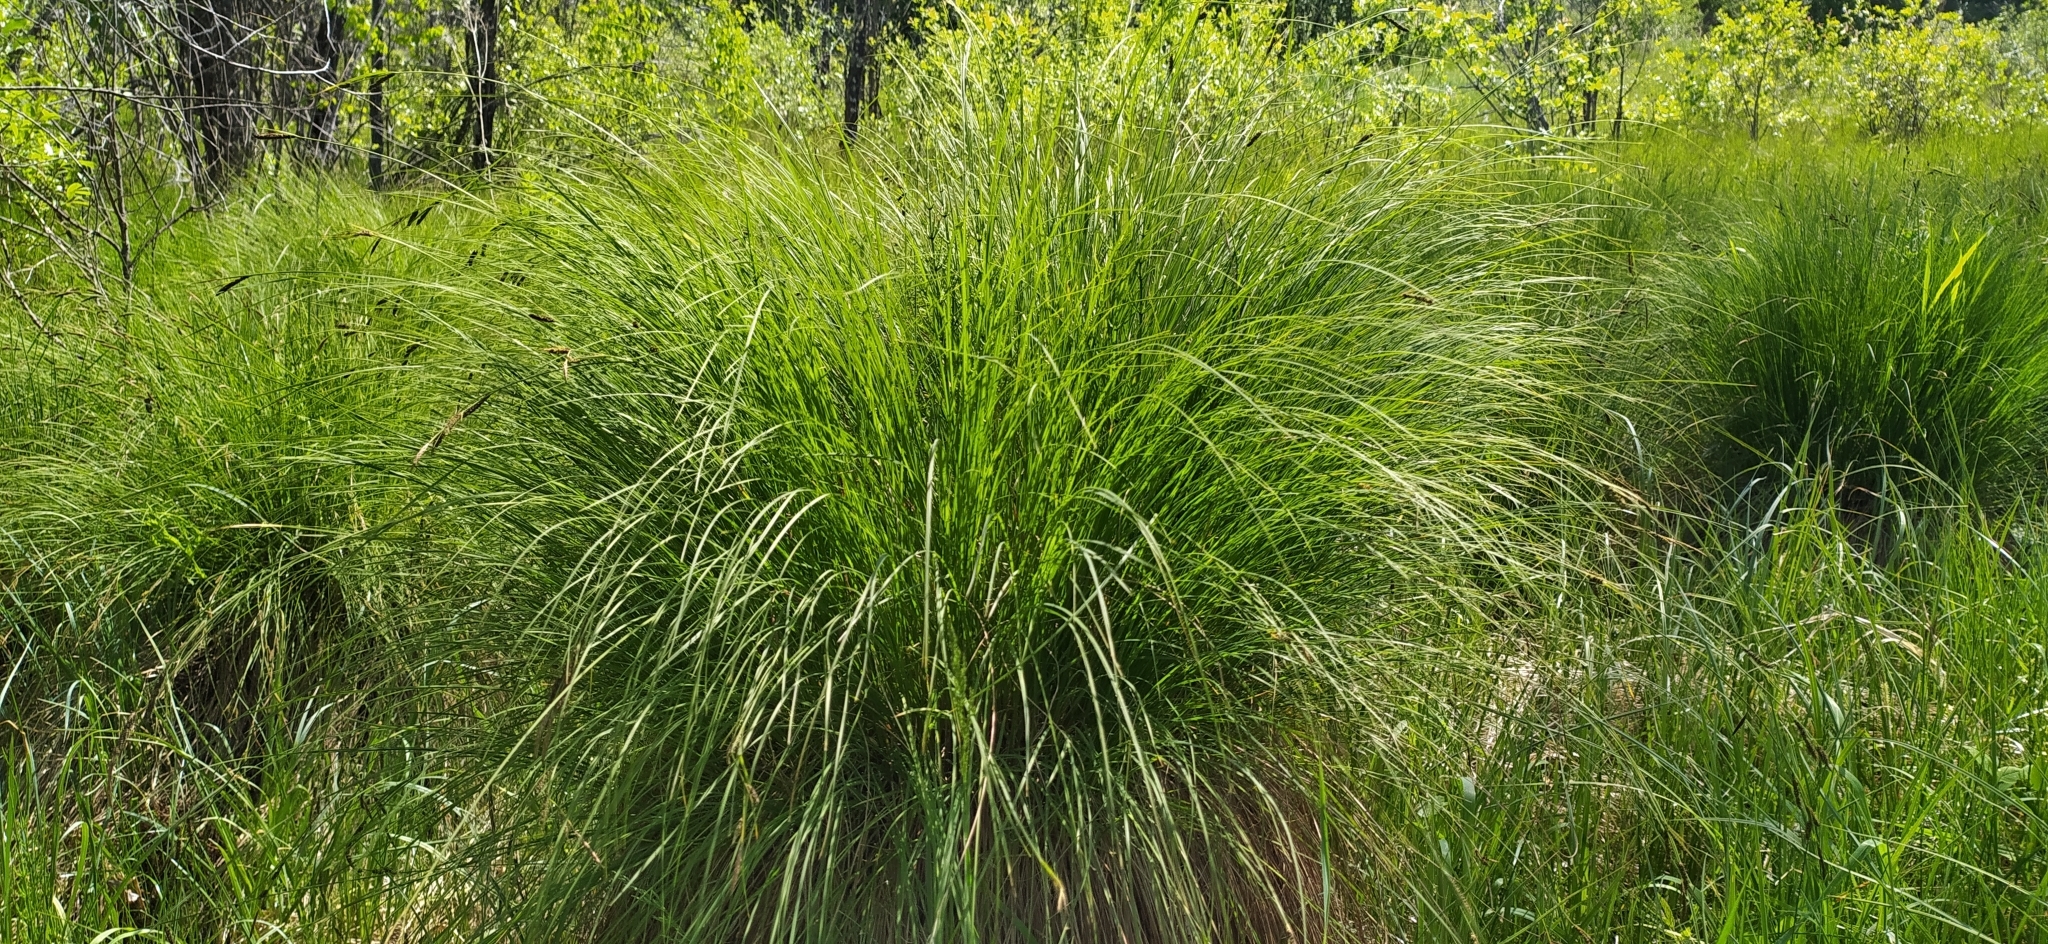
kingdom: Plantae
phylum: Tracheophyta
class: Liliopsida
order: Poales
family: Cyperaceae
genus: Carex
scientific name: Carex acuta
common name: Slender tufted-sedge
